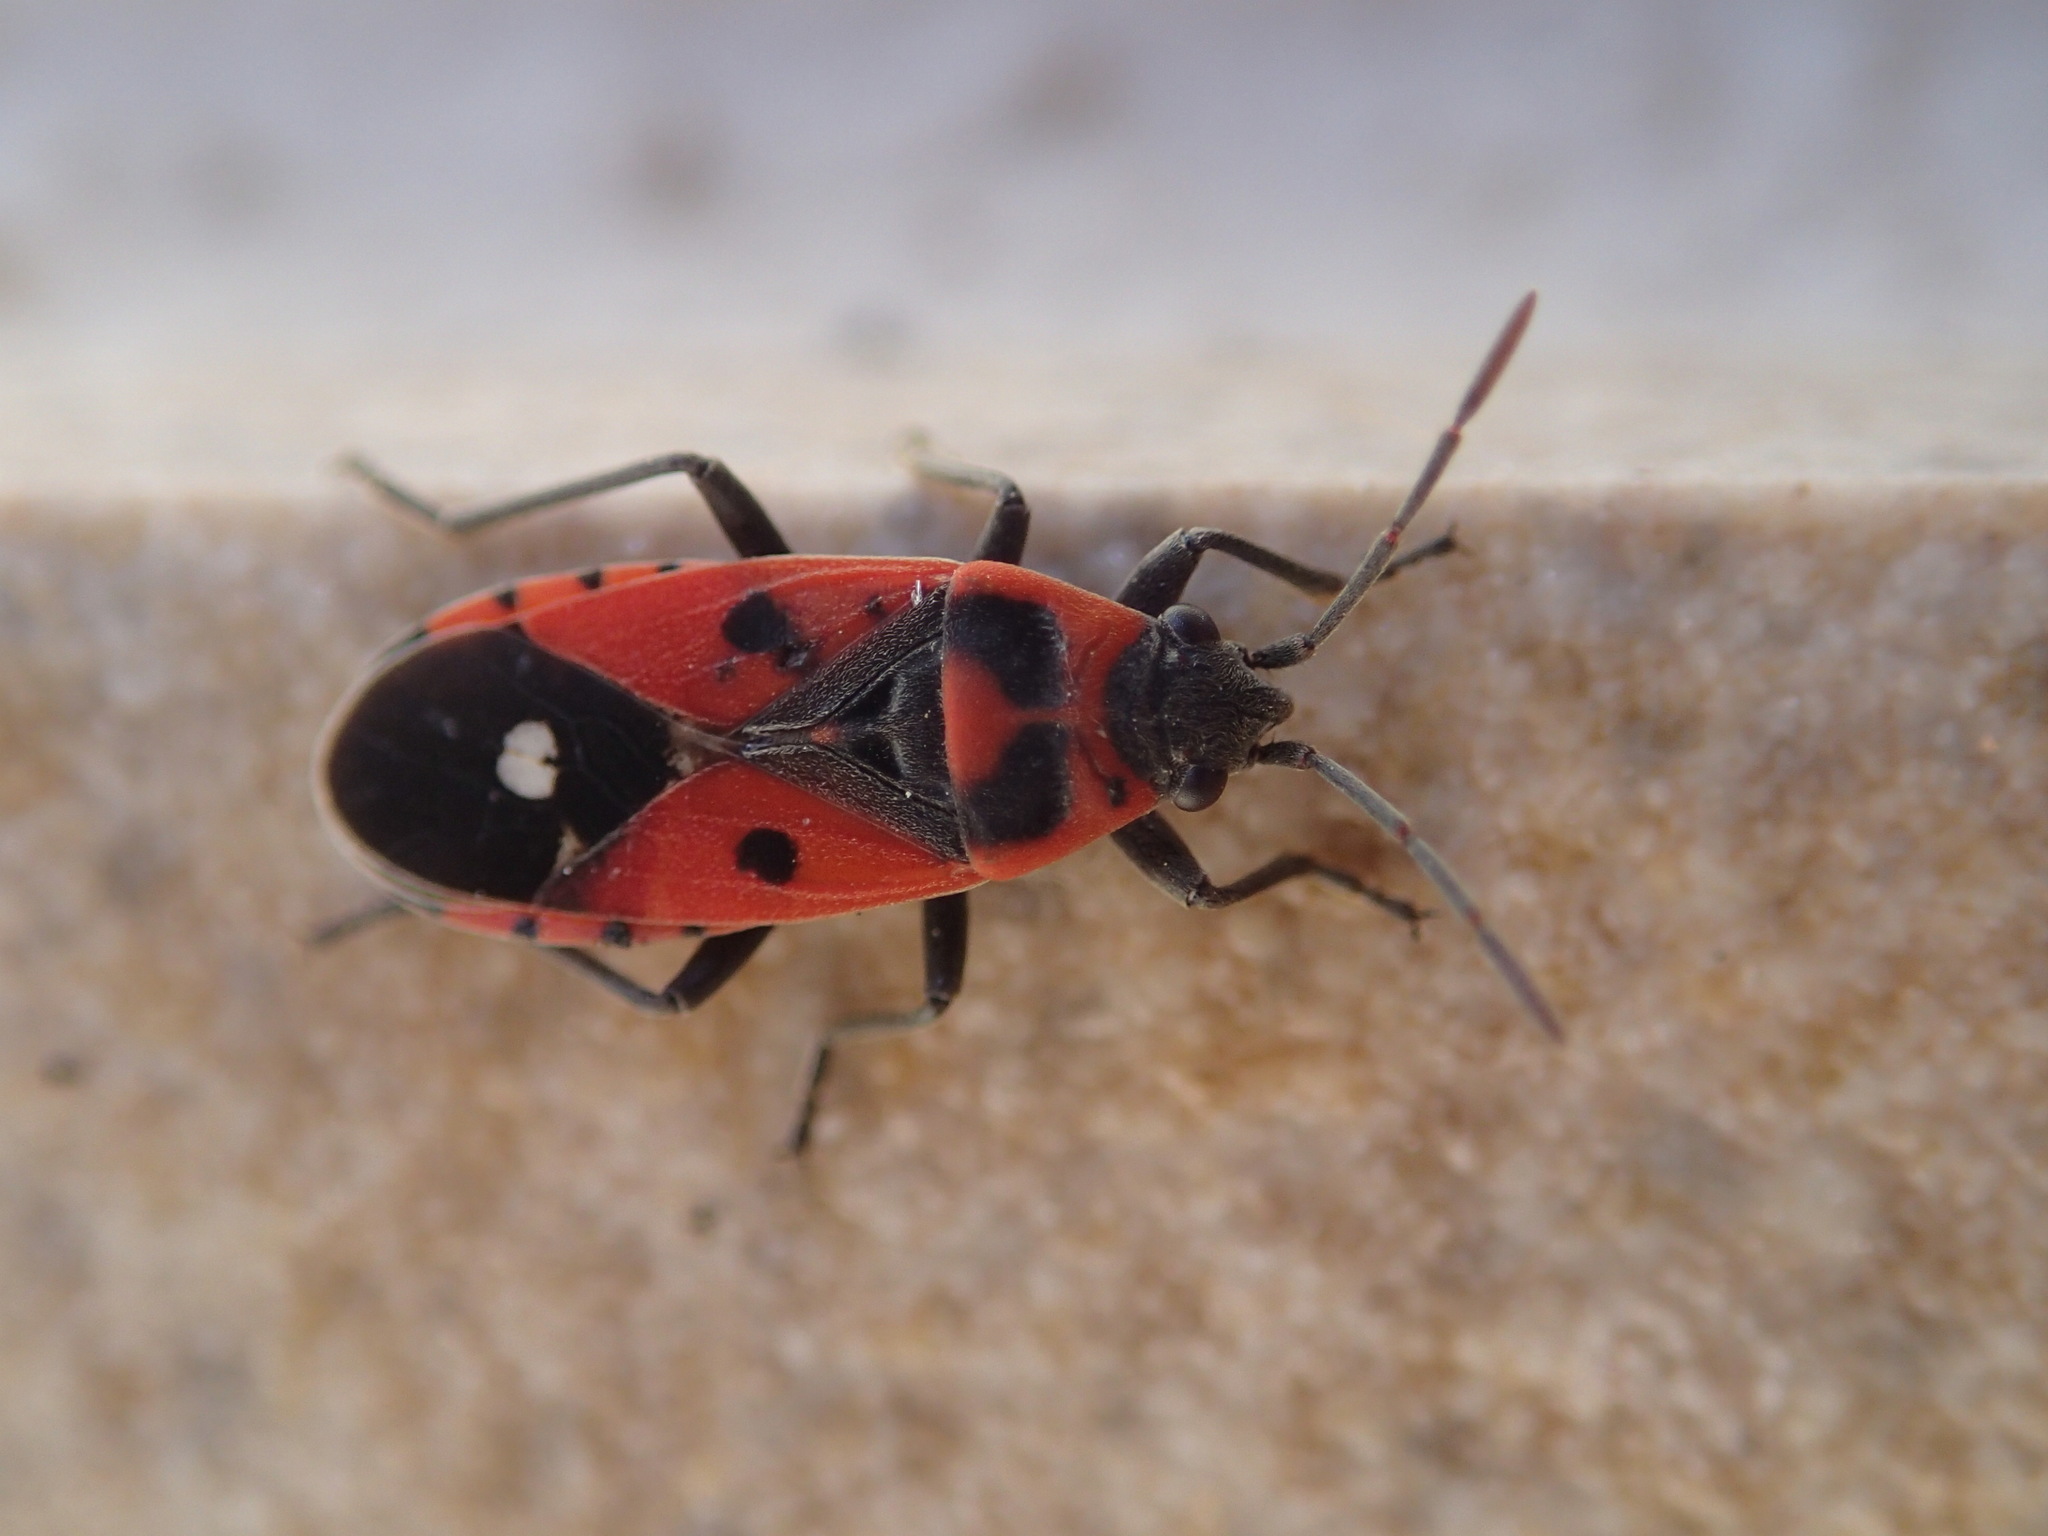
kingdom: Animalia
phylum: Arthropoda
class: Insecta
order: Hemiptera
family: Lygaeidae
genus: Melanocoryphus
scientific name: Melanocoryphus albomaculatus
